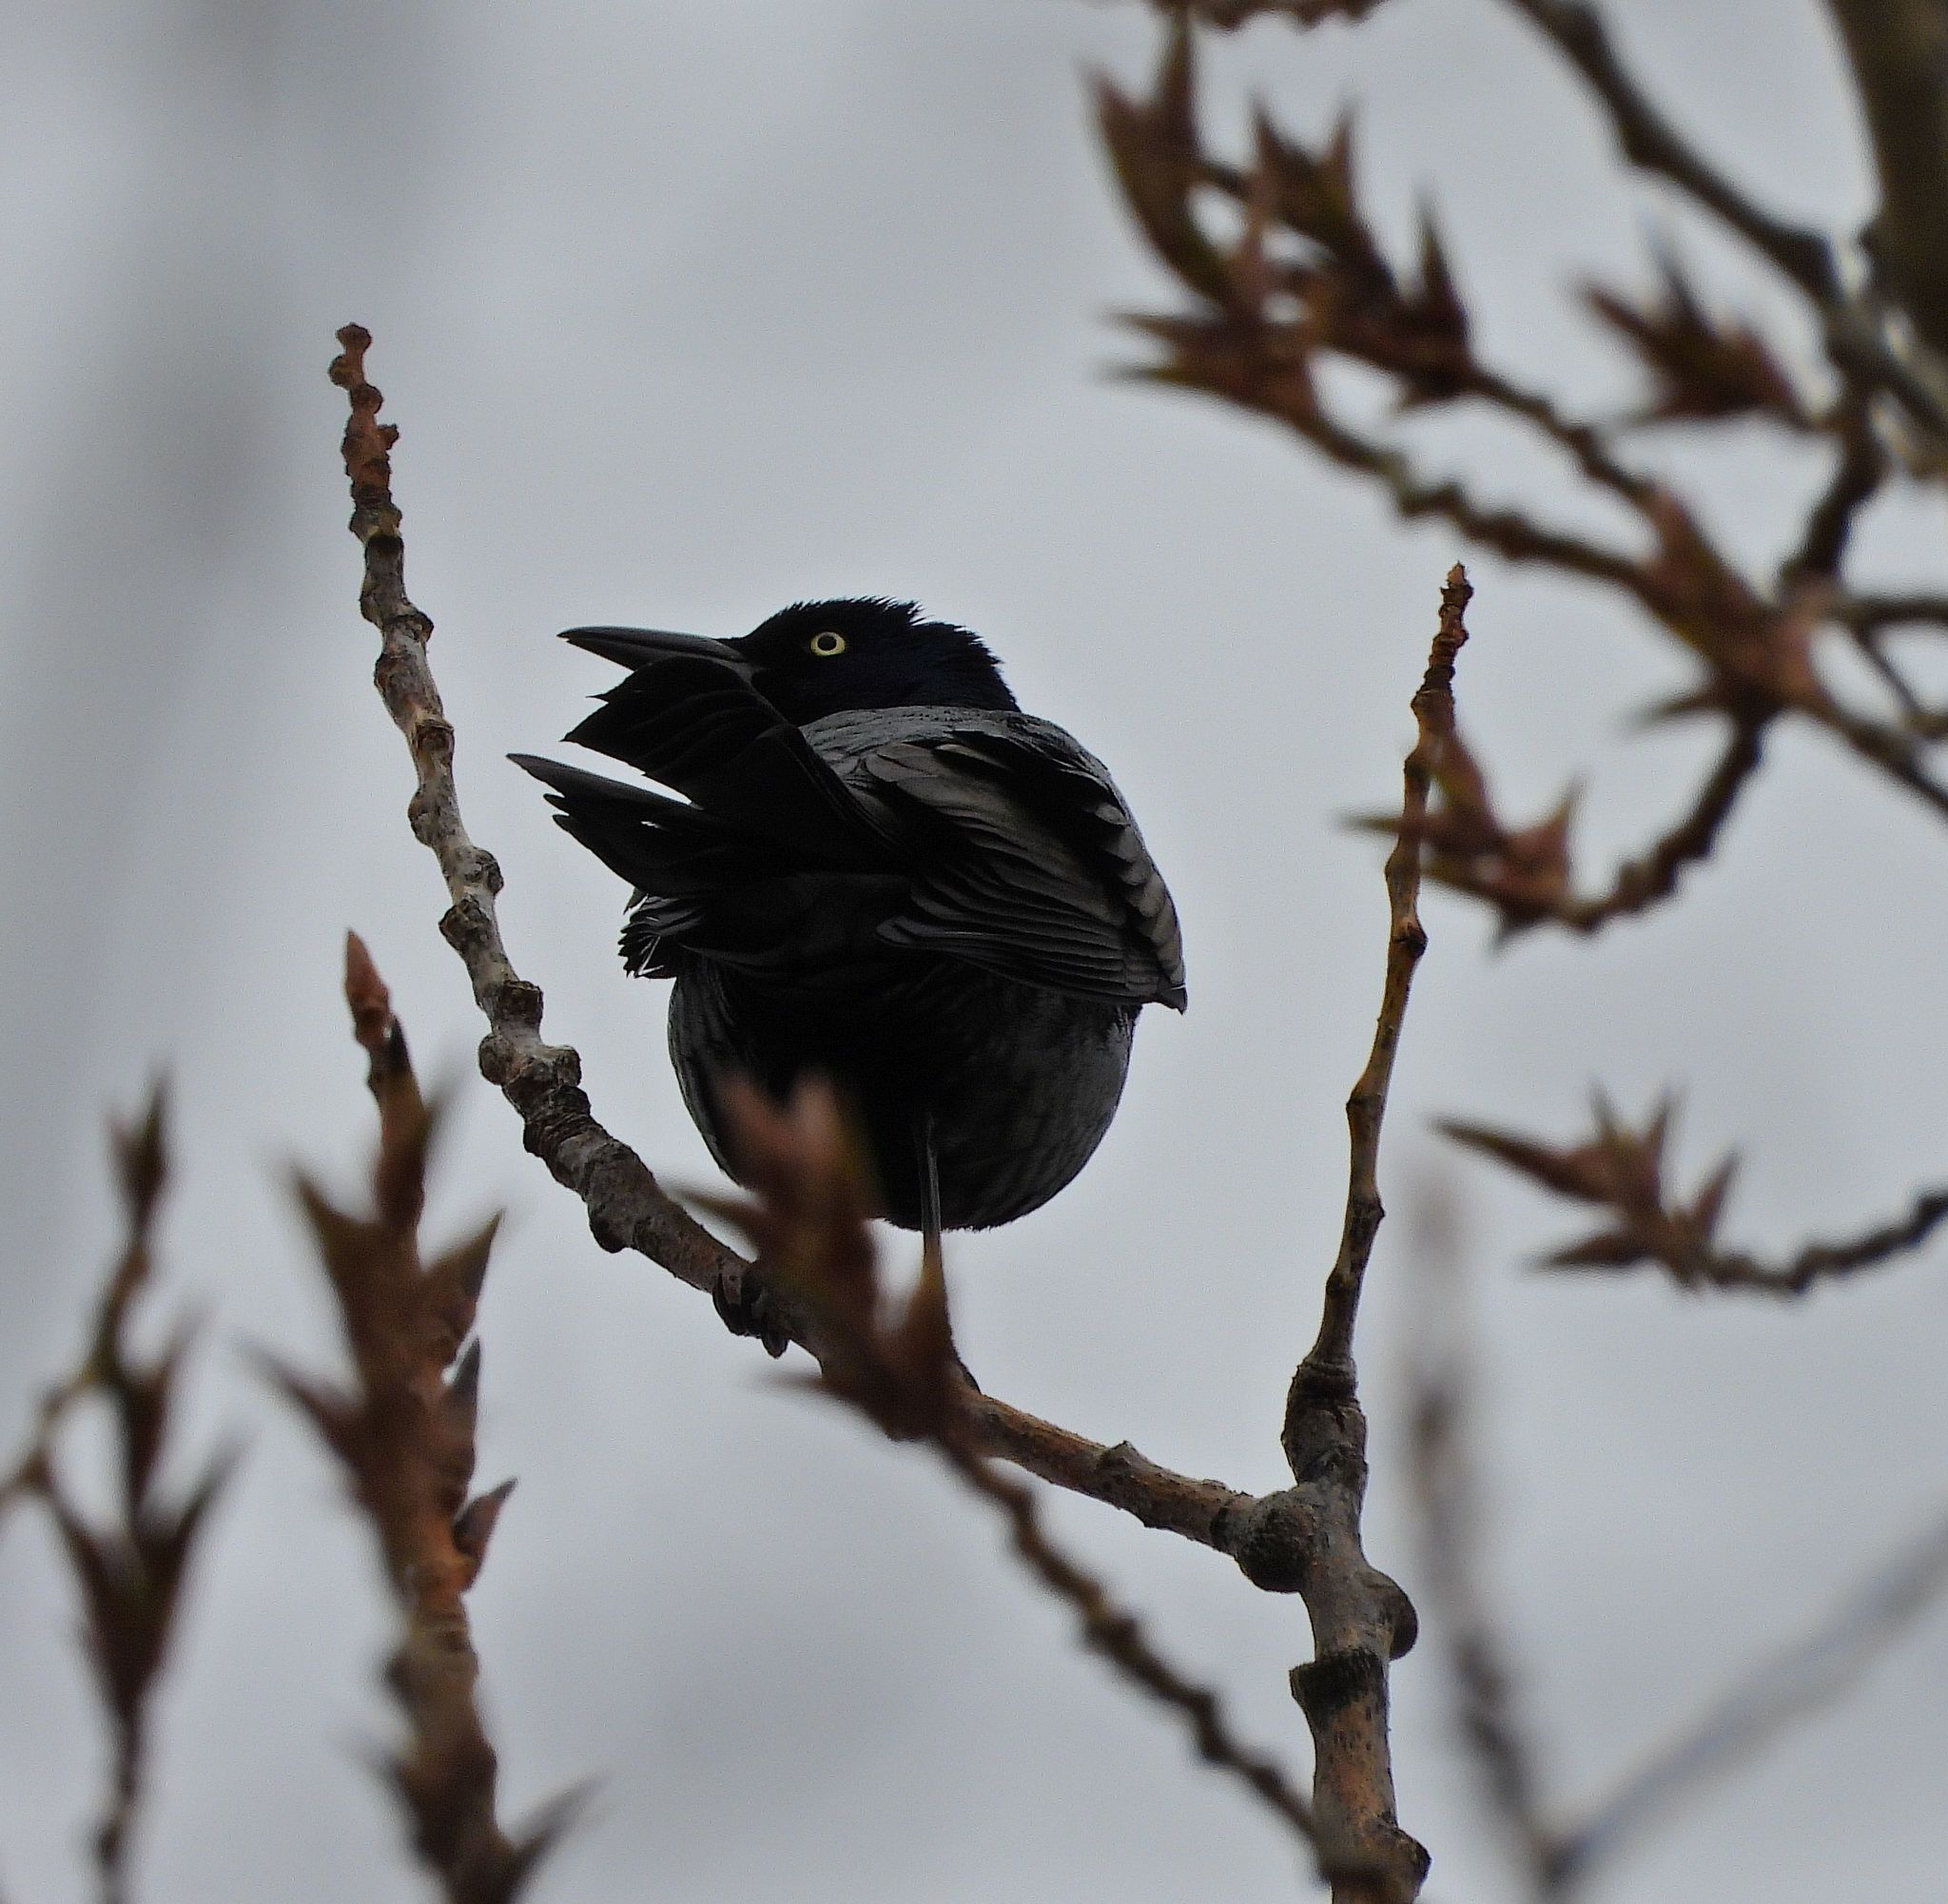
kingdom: Animalia
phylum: Chordata
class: Aves
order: Passeriformes
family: Icteridae
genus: Quiscalus
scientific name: Quiscalus quiscula
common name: Common grackle
